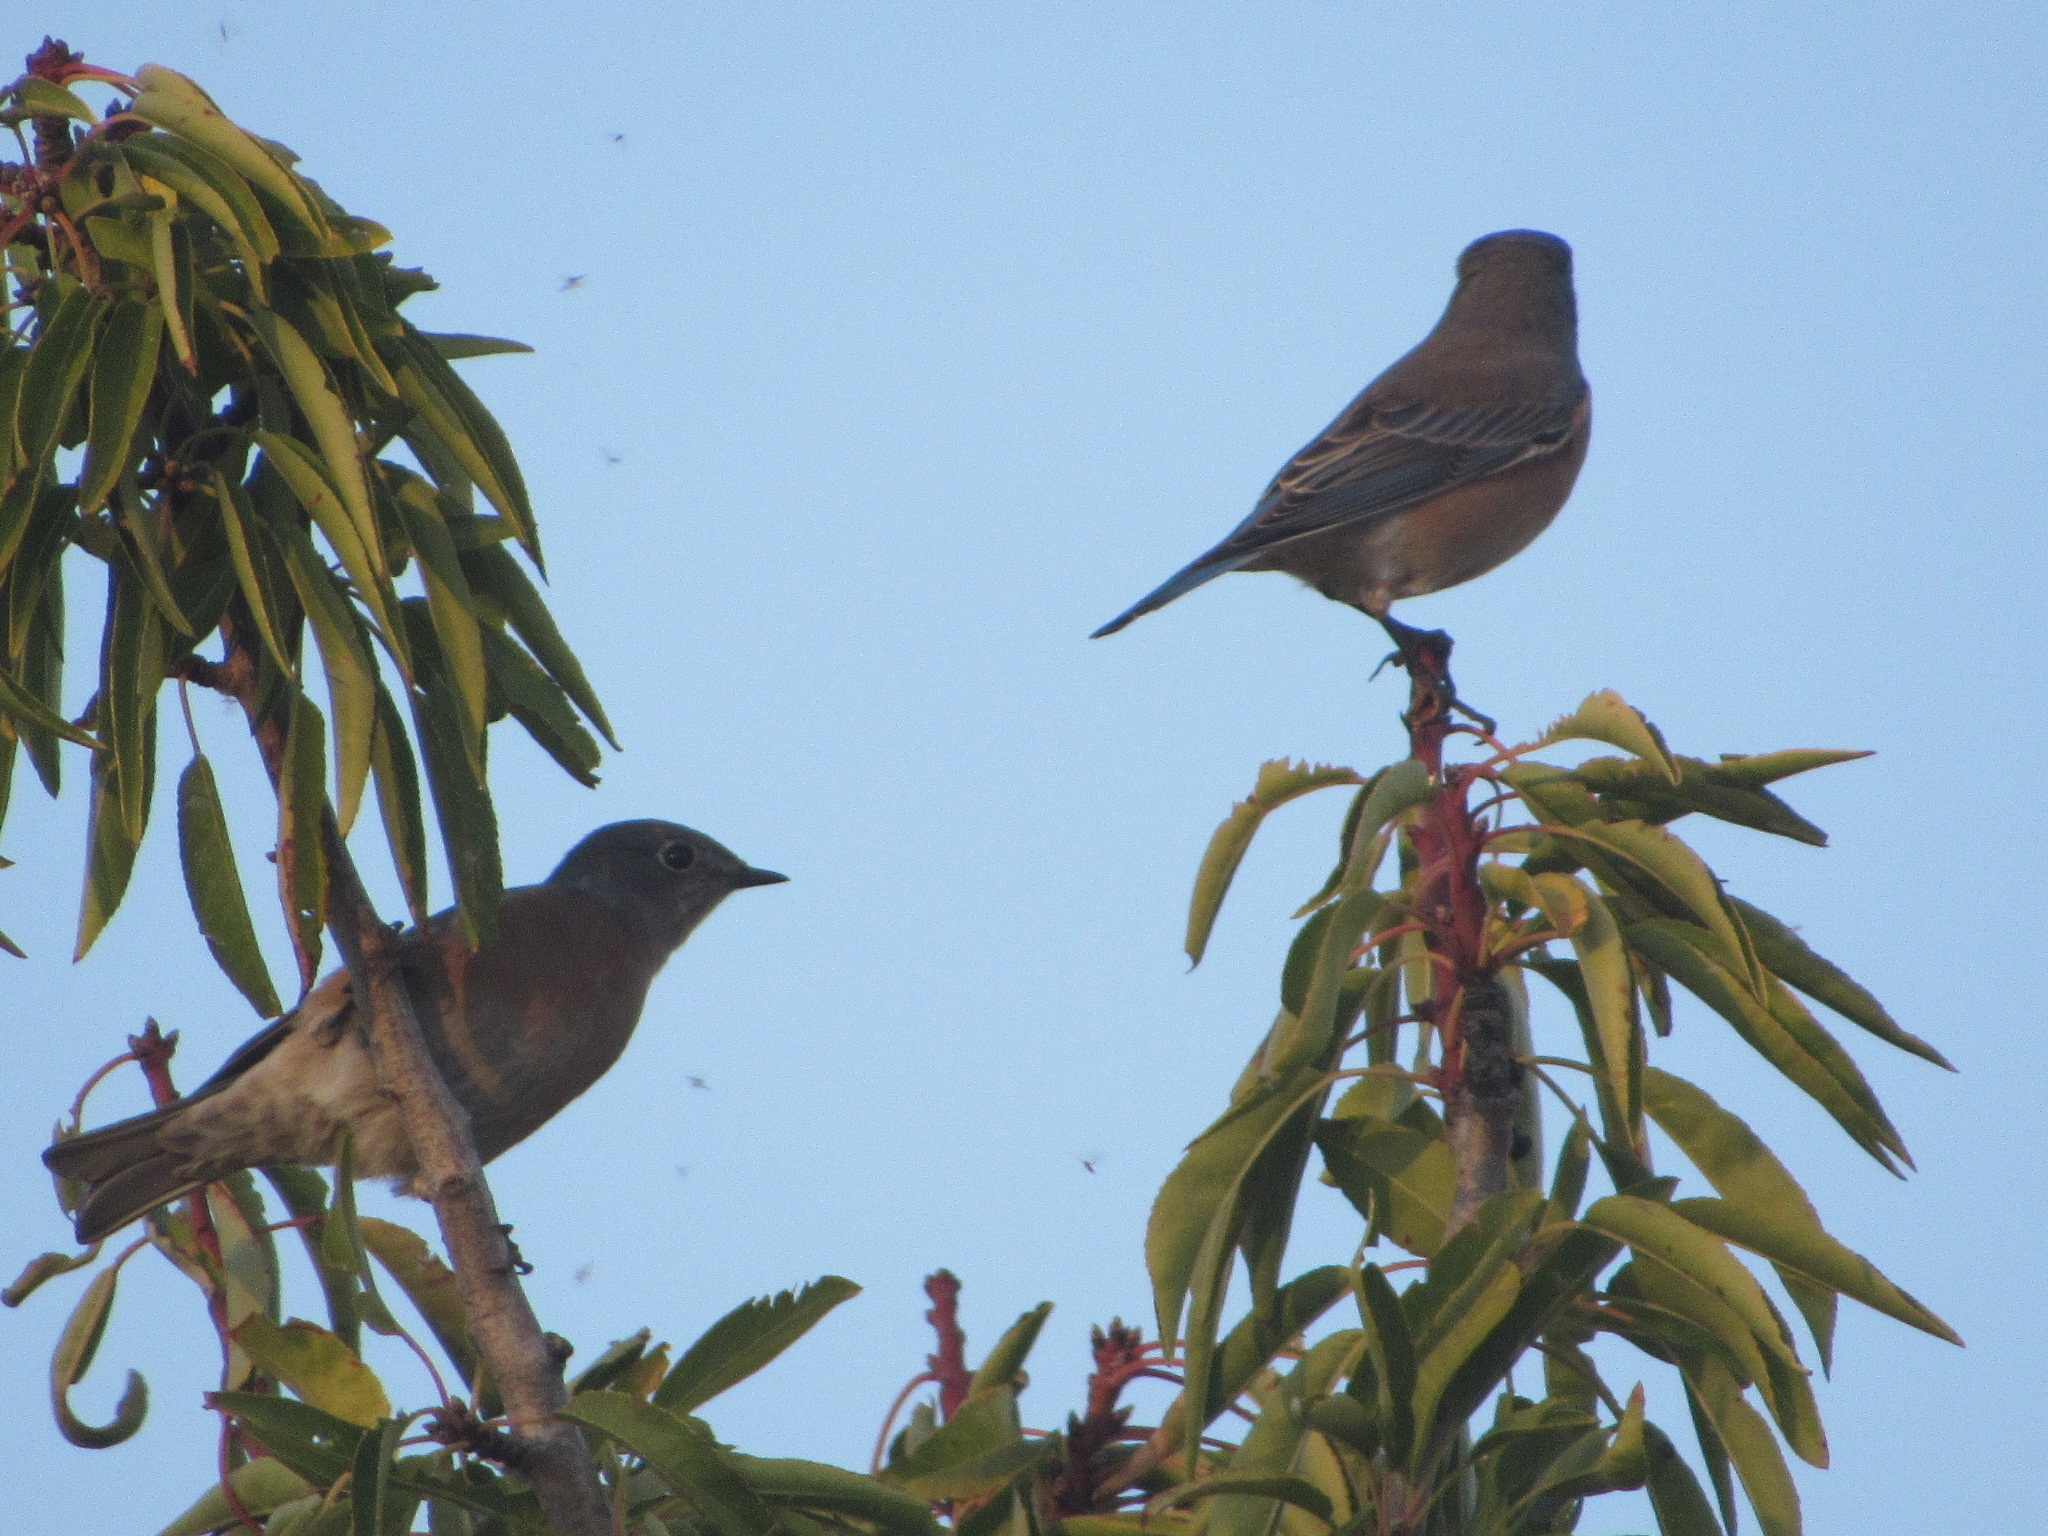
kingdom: Animalia
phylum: Chordata
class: Aves
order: Passeriformes
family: Turdidae
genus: Sialia
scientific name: Sialia mexicana
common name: Western bluebird
